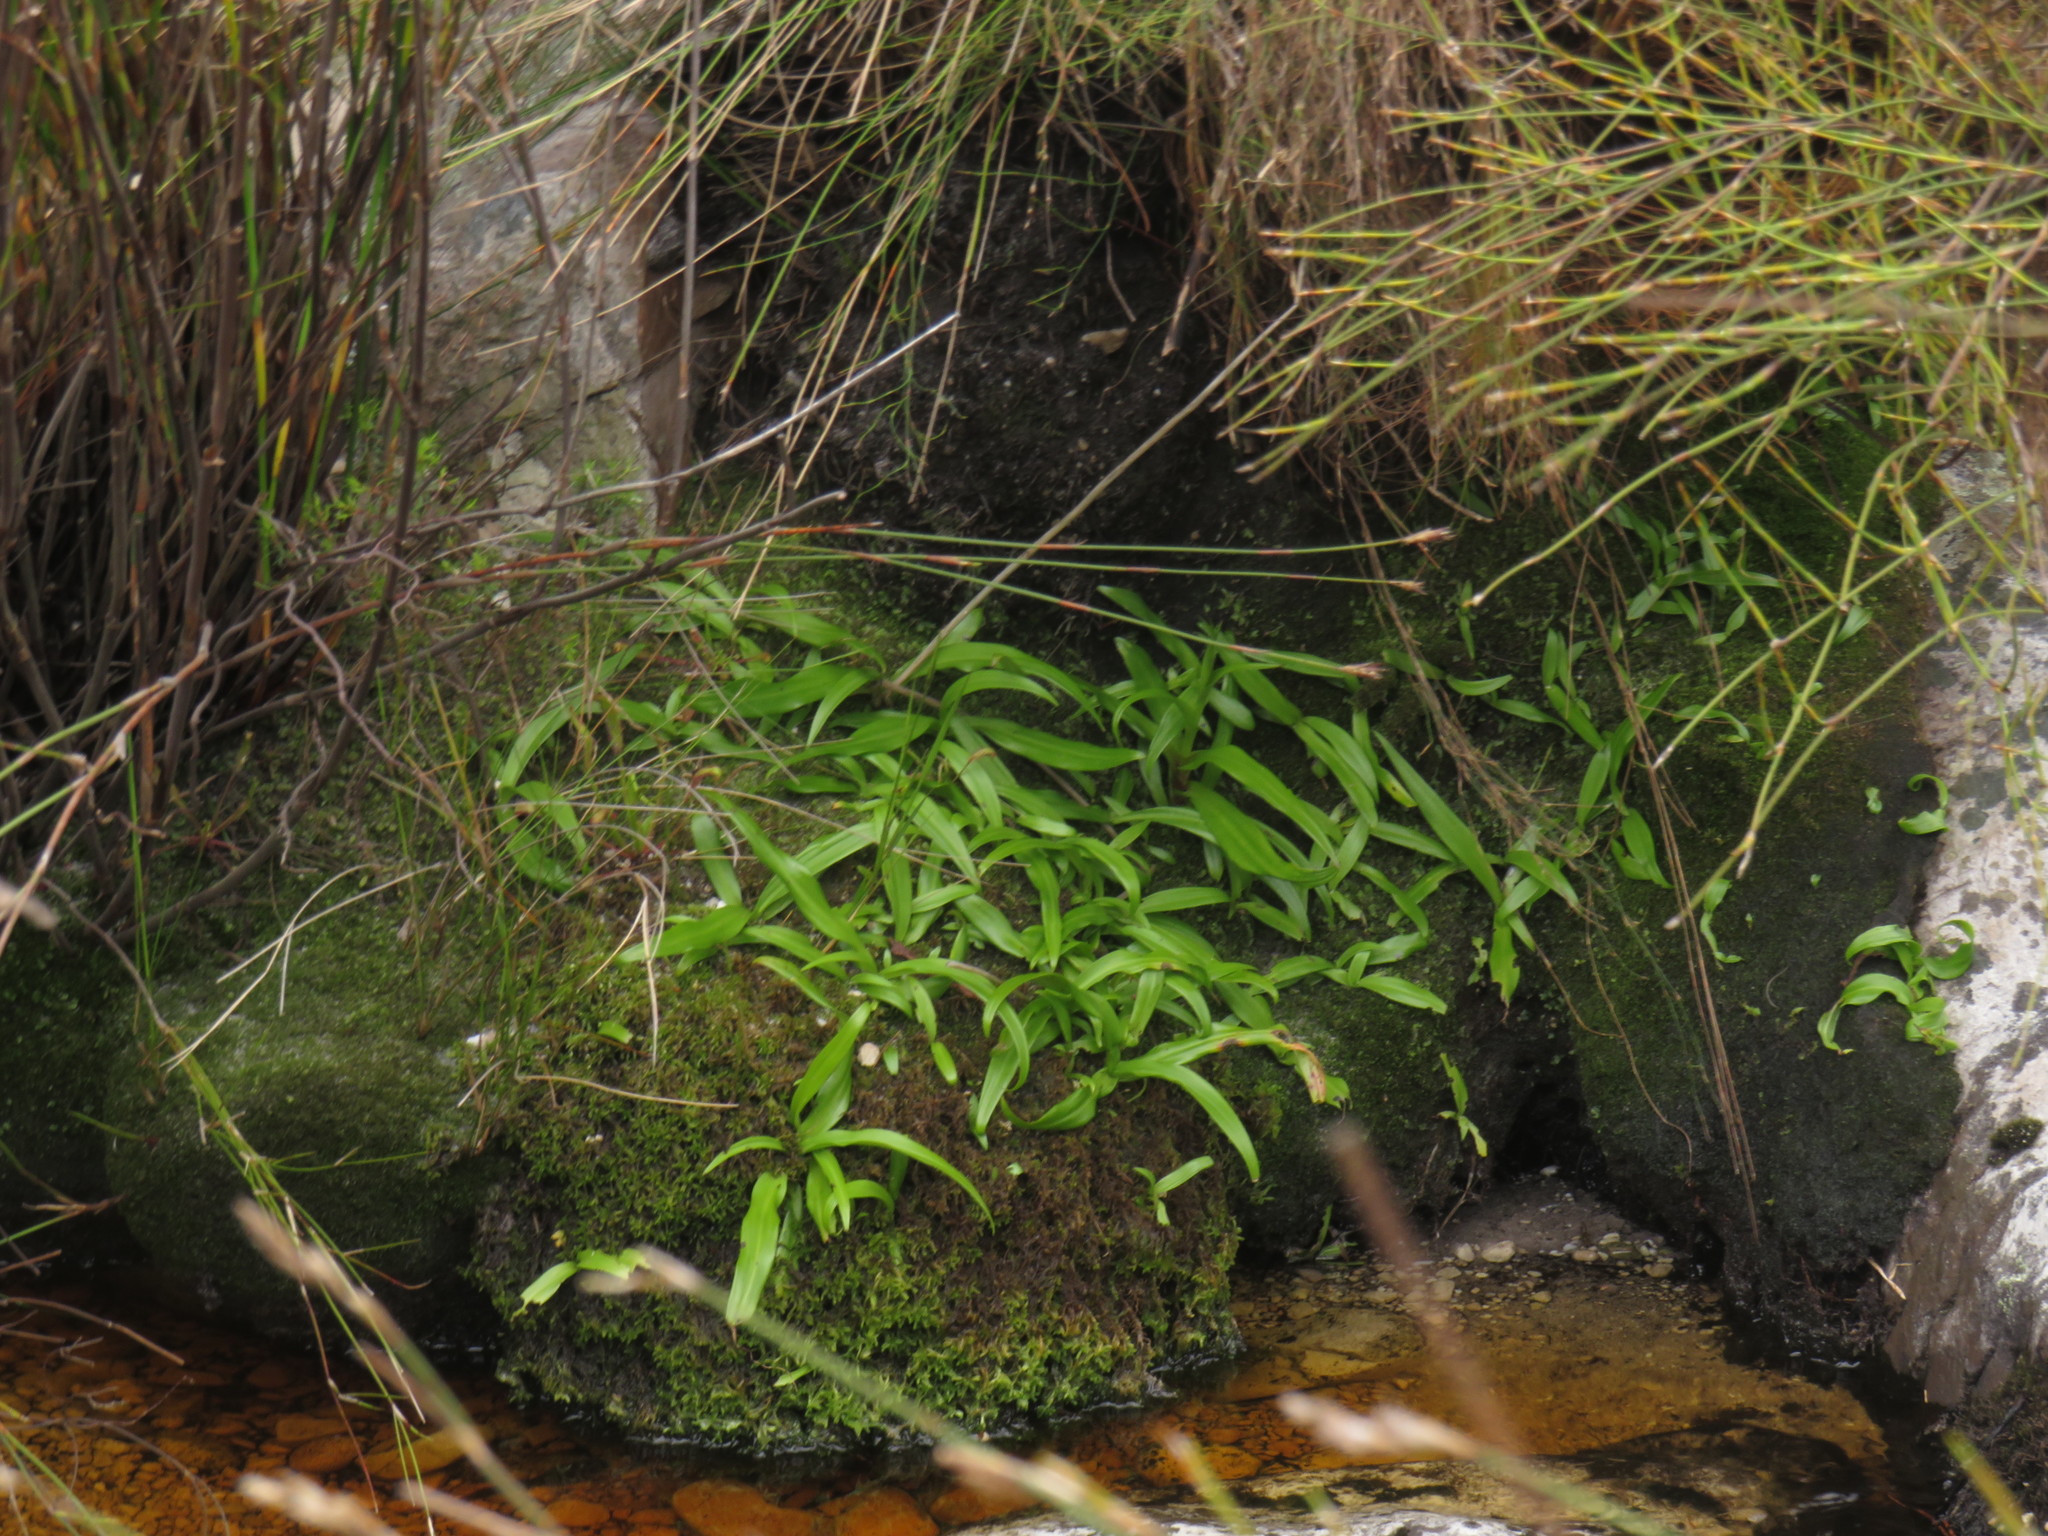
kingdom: Plantae
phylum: Tracheophyta
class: Liliopsida
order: Asparagales
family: Orchidaceae
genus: Disa
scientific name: Disa uniflora
